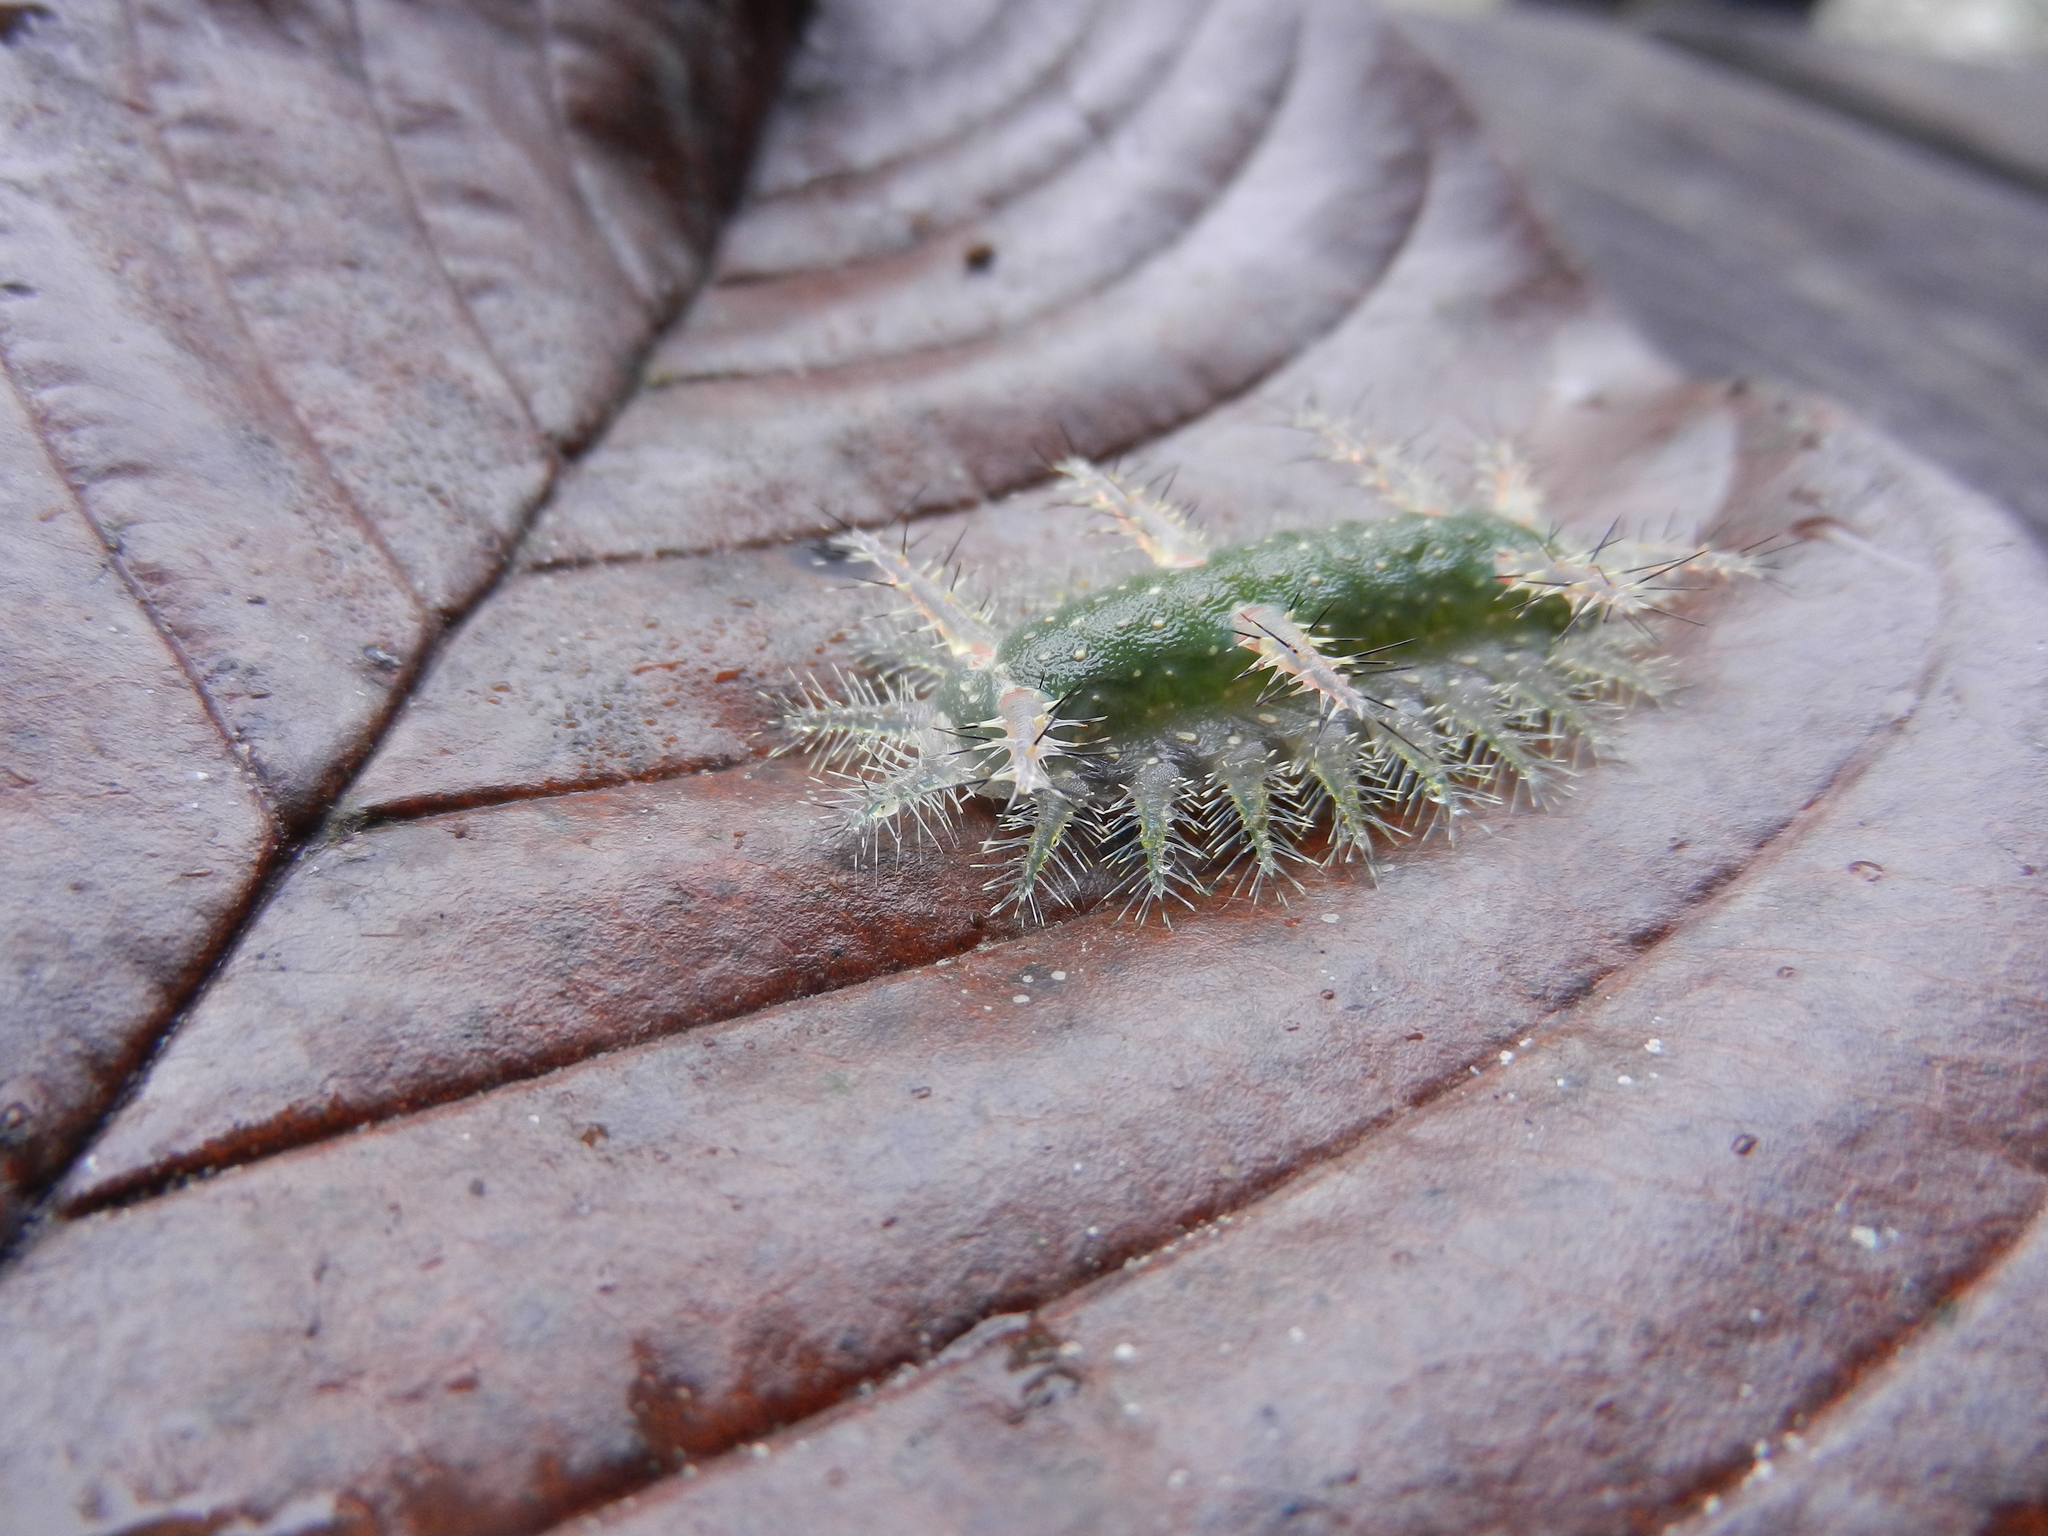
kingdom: Animalia
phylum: Arthropoda
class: Insecta
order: Lepidoptera
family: Limacodidae
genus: Natada
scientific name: Natada incandescens
